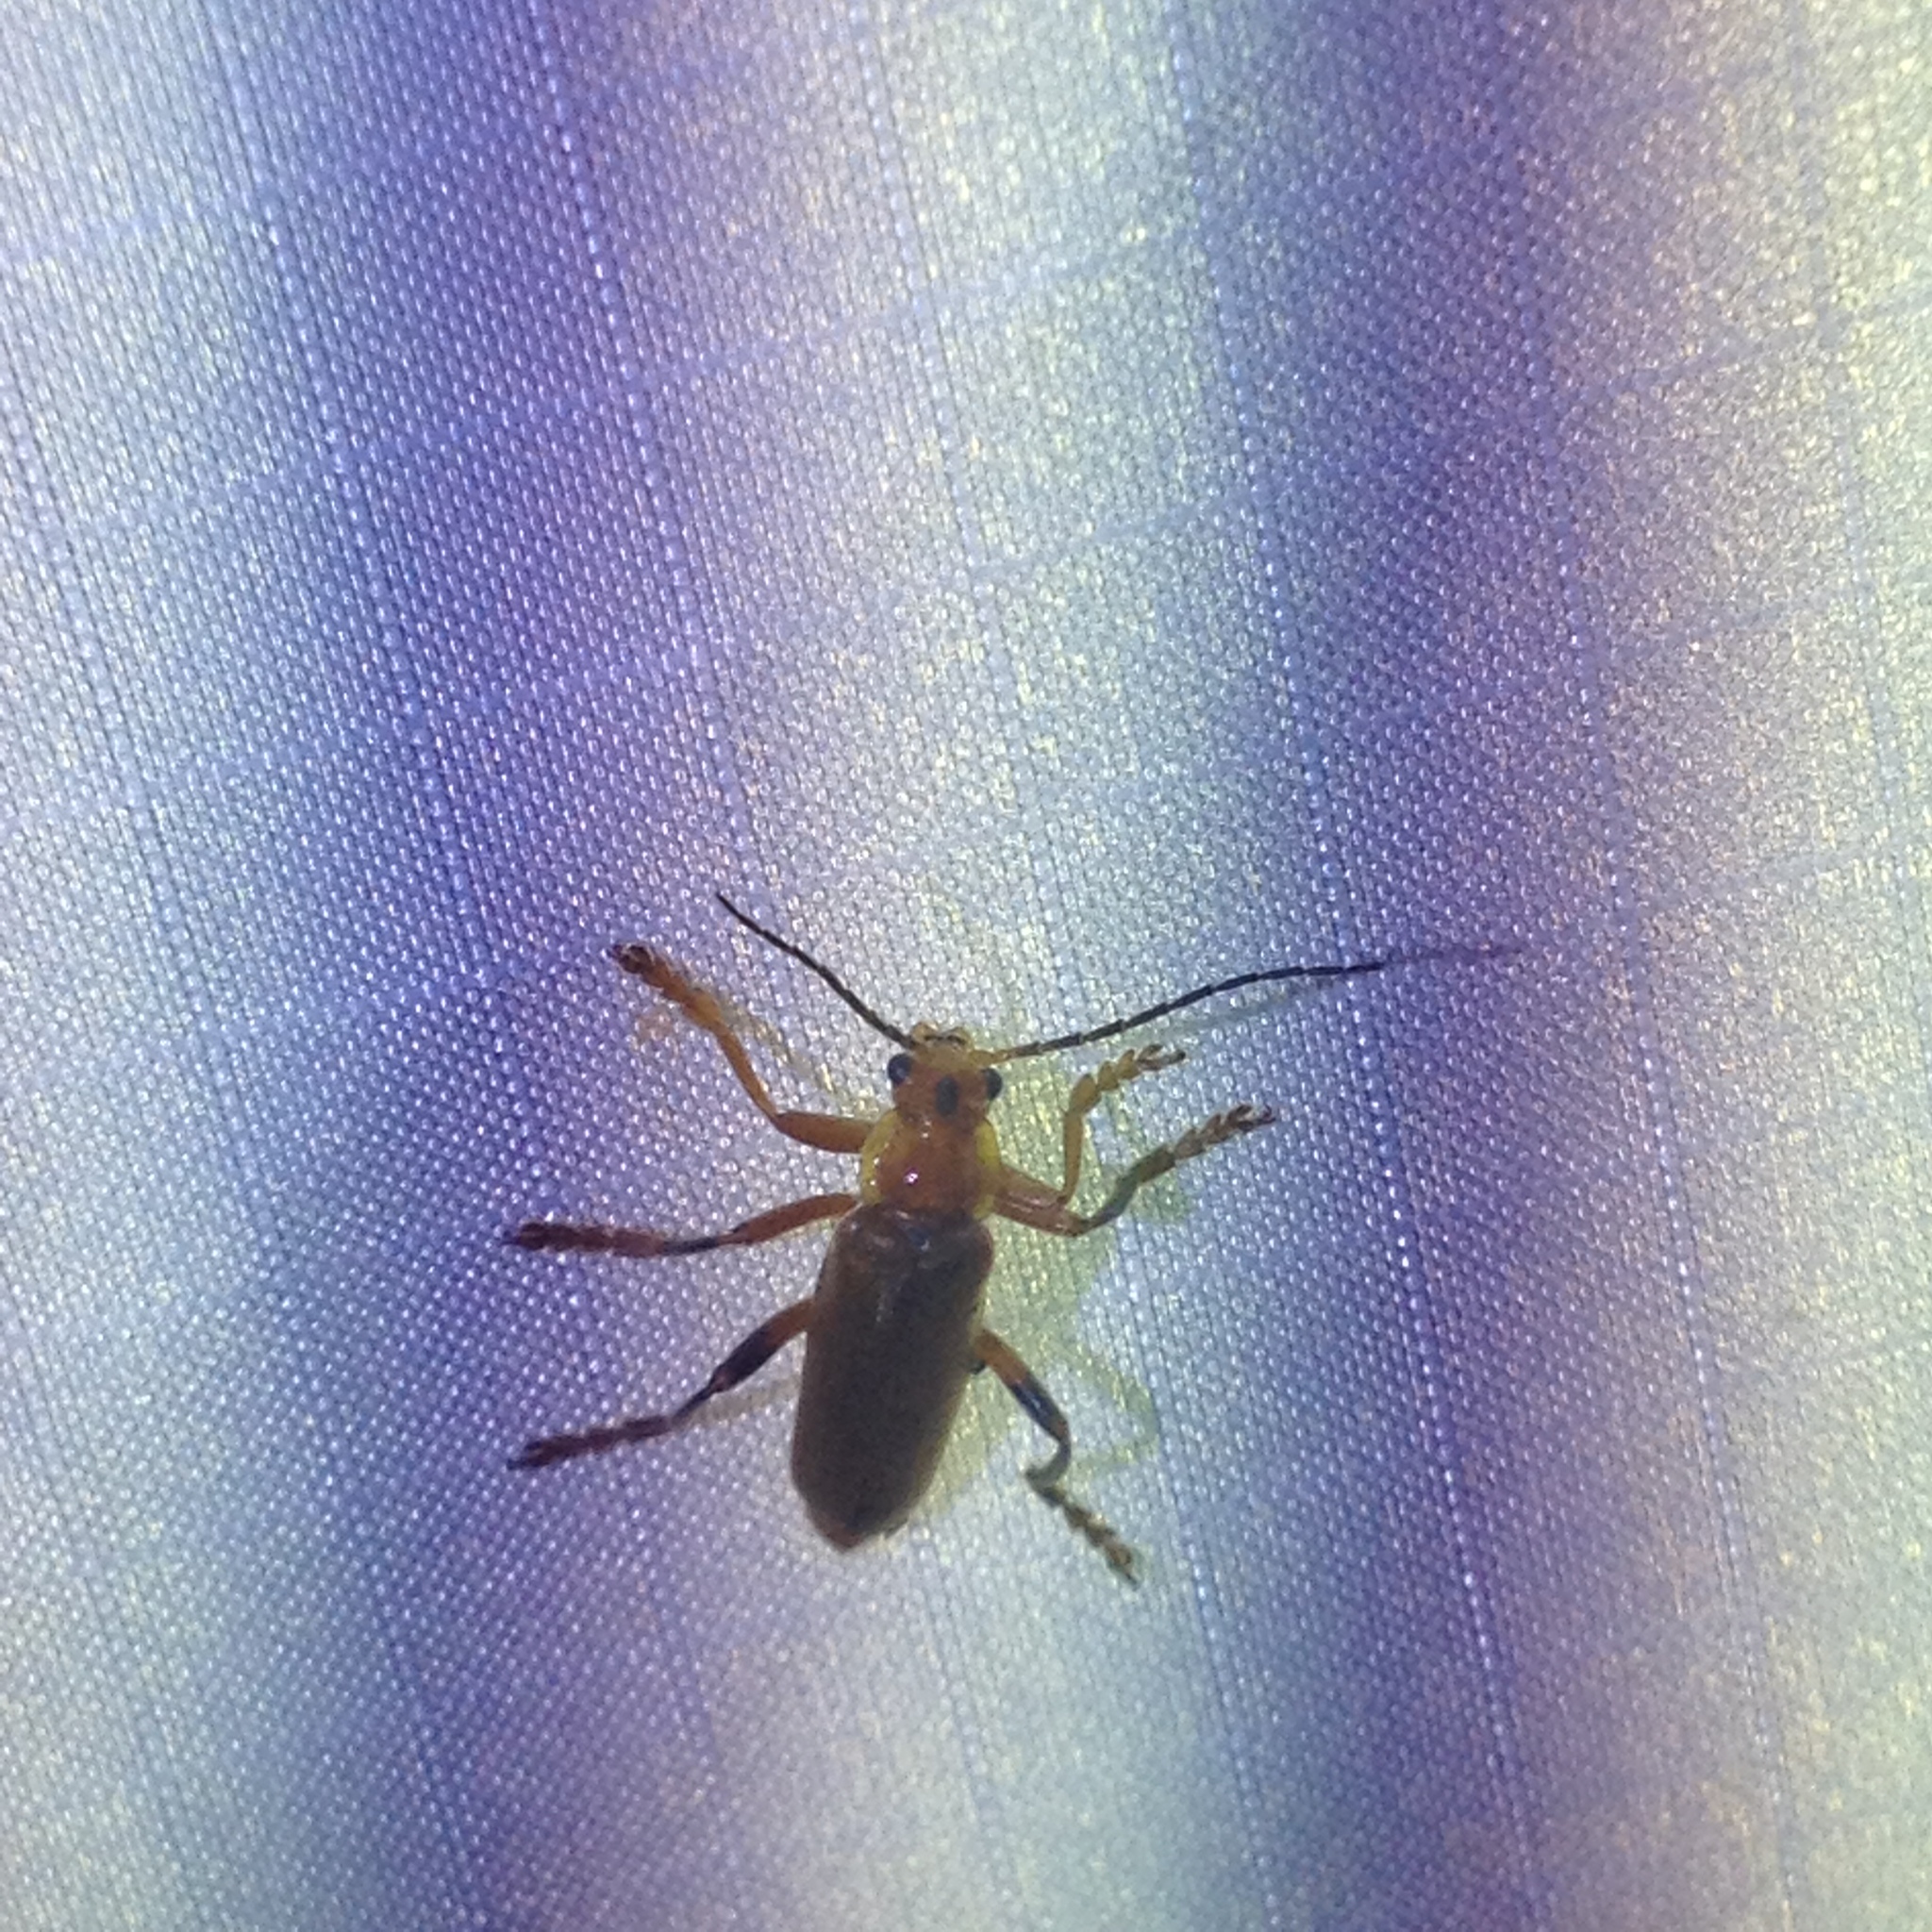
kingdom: Animalia
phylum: Arthropoda
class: Insecta
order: Coleoptera
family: Cantharidae
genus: Cantharis
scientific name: Cantharis livida
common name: Livid soldier beetle
